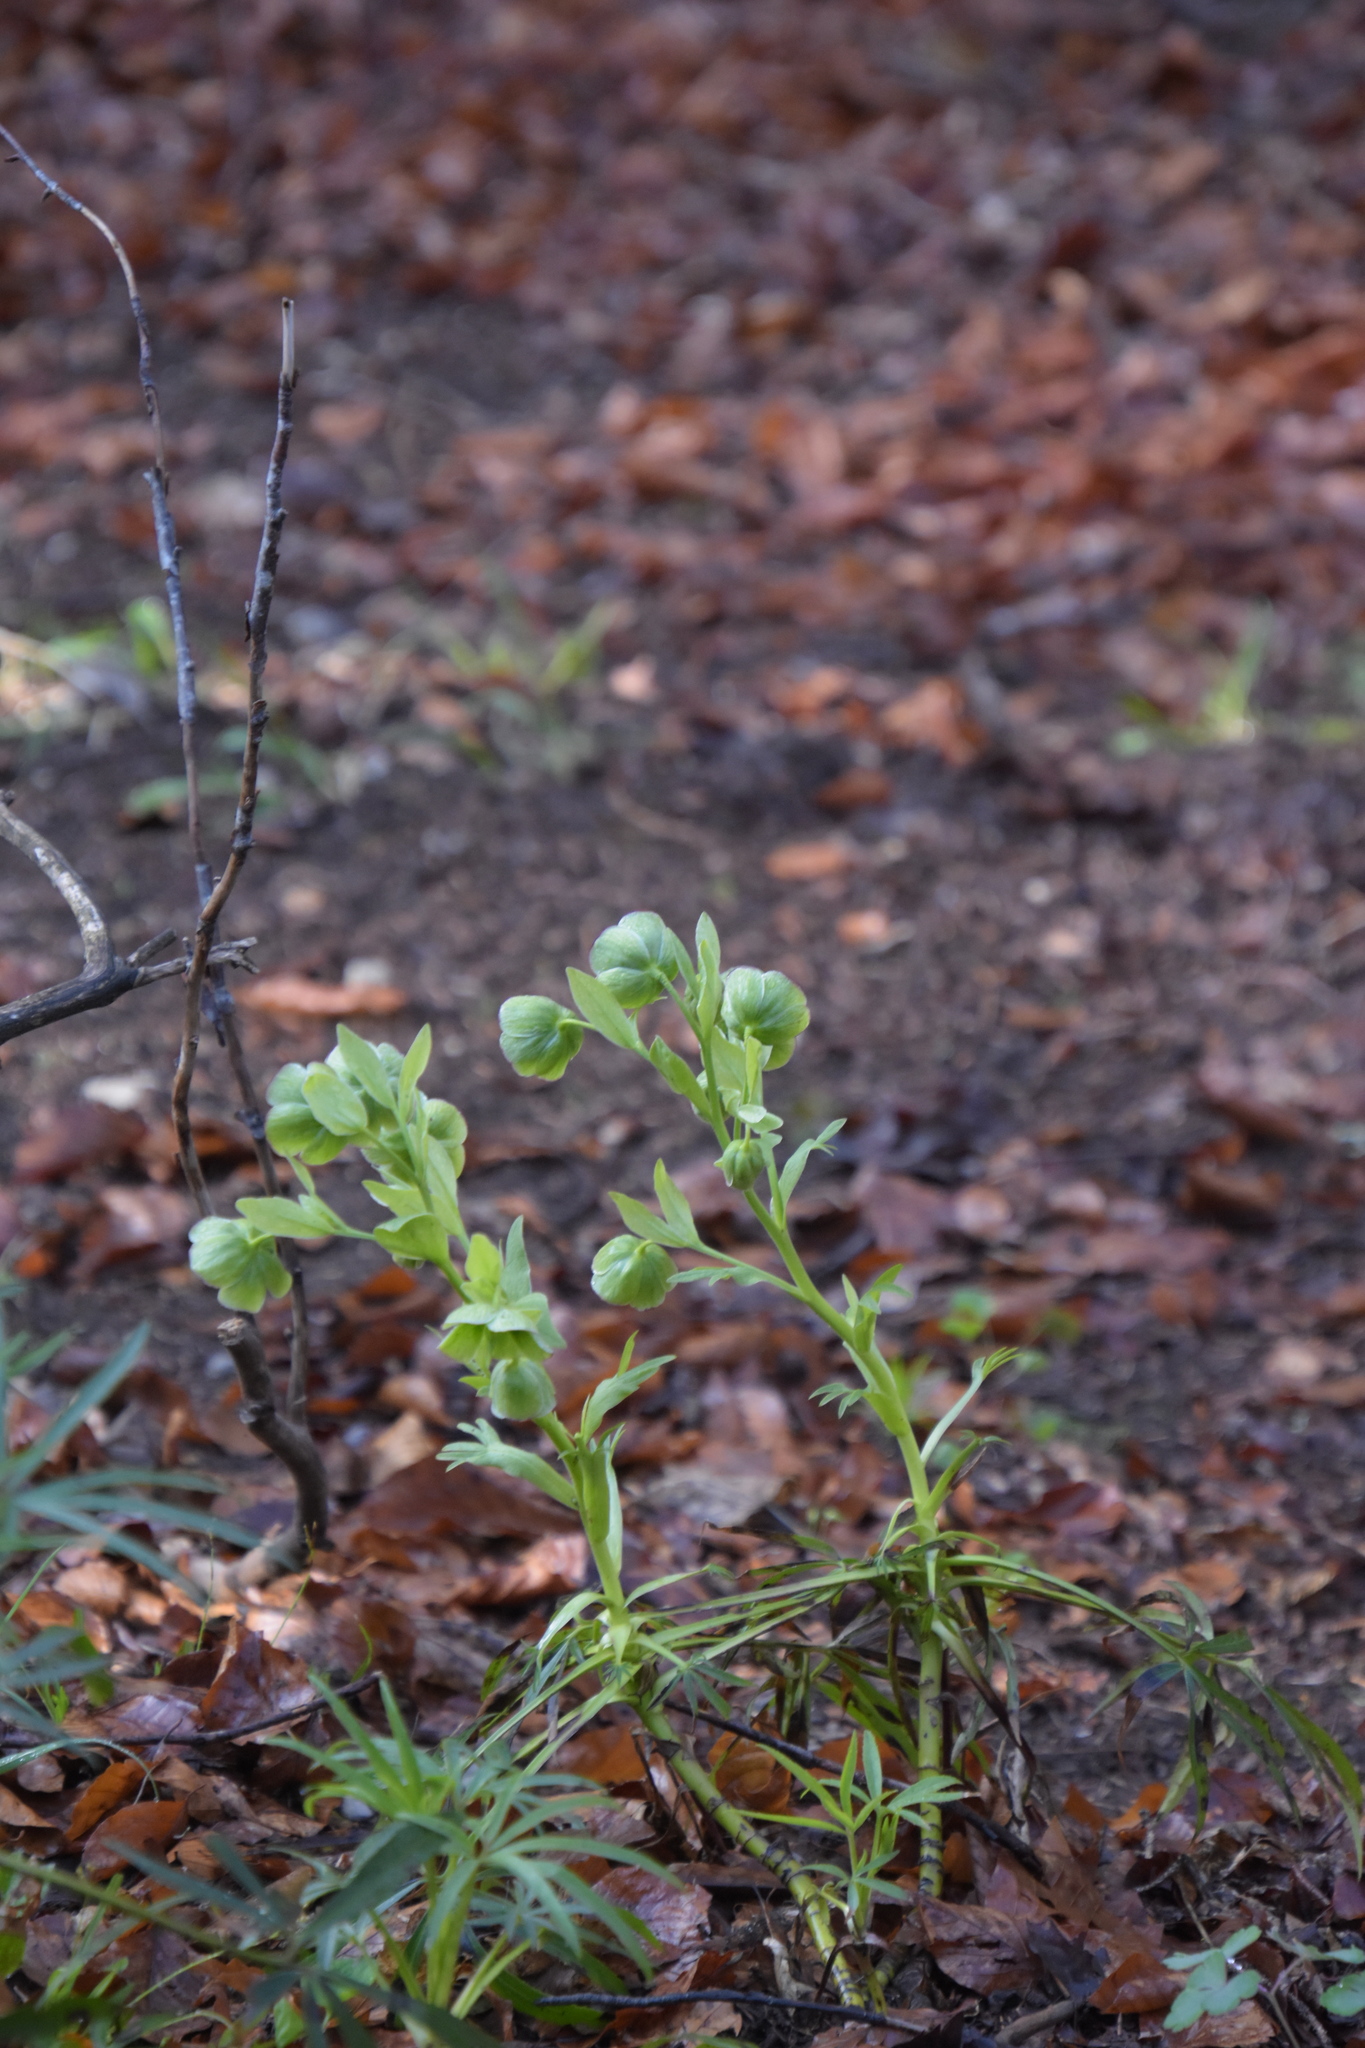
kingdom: Plantae
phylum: Tracheophyta
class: Magnoliopsida
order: Ranunculales
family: Ranunculaceae
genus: Helleborus
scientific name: Helleborus foetidus
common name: Stinking hellebore
